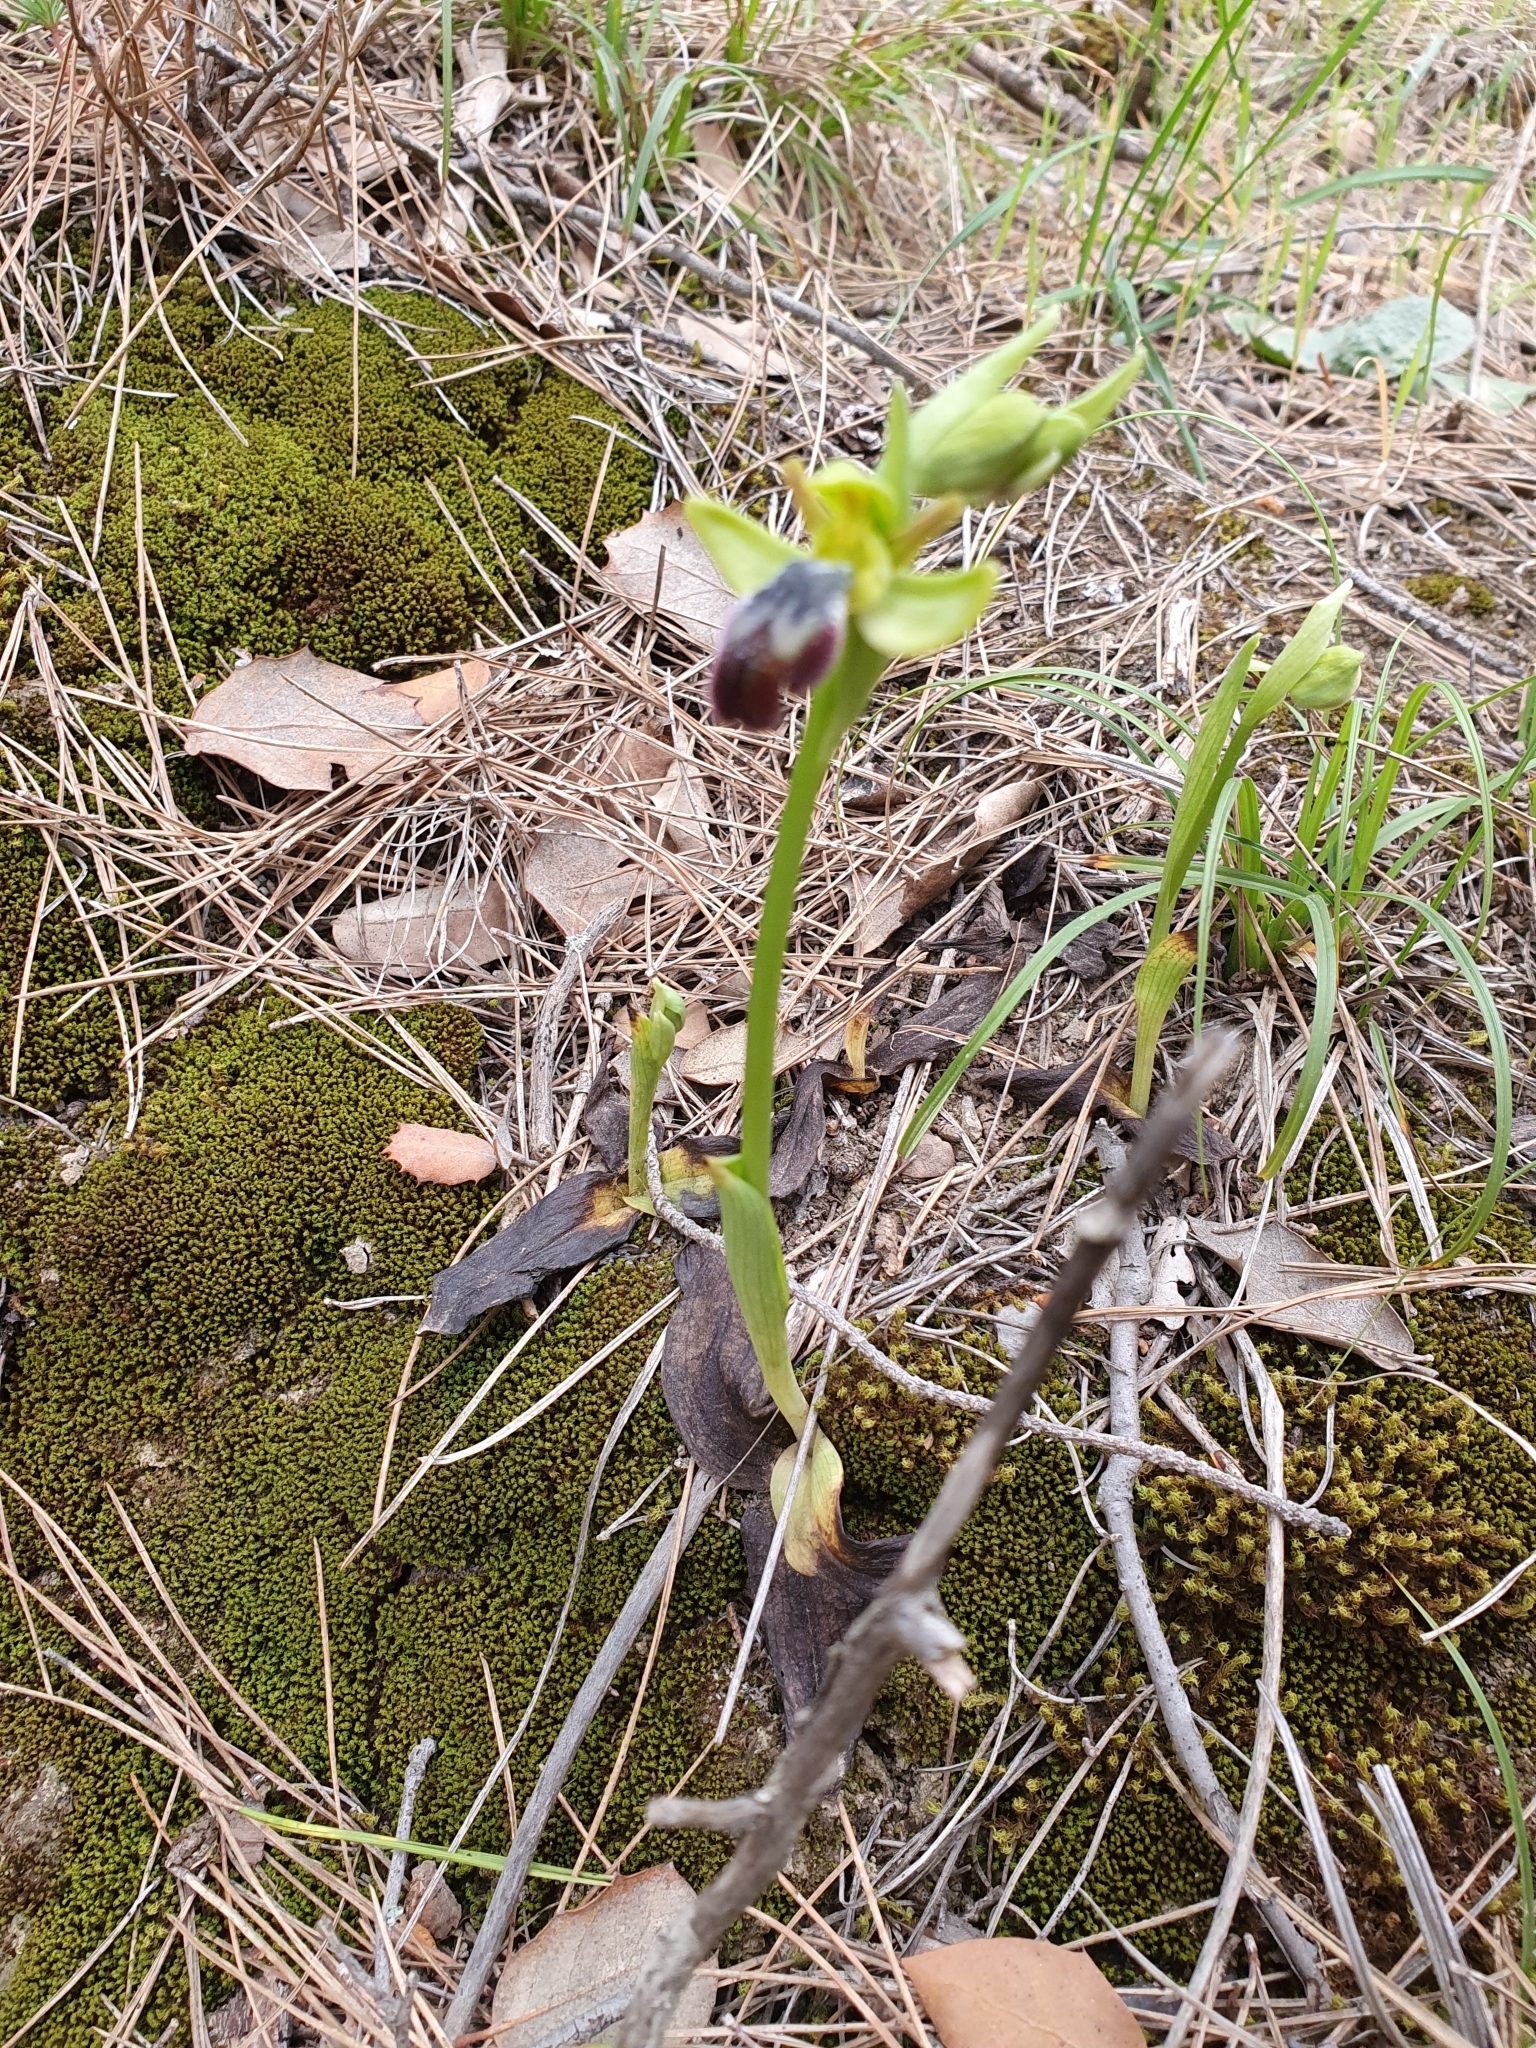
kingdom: Plantae
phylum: Tracheophyta
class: Liliopsida
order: Asparagales
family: Orchidaceae
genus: Ophrys
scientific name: Ophrys fusca
